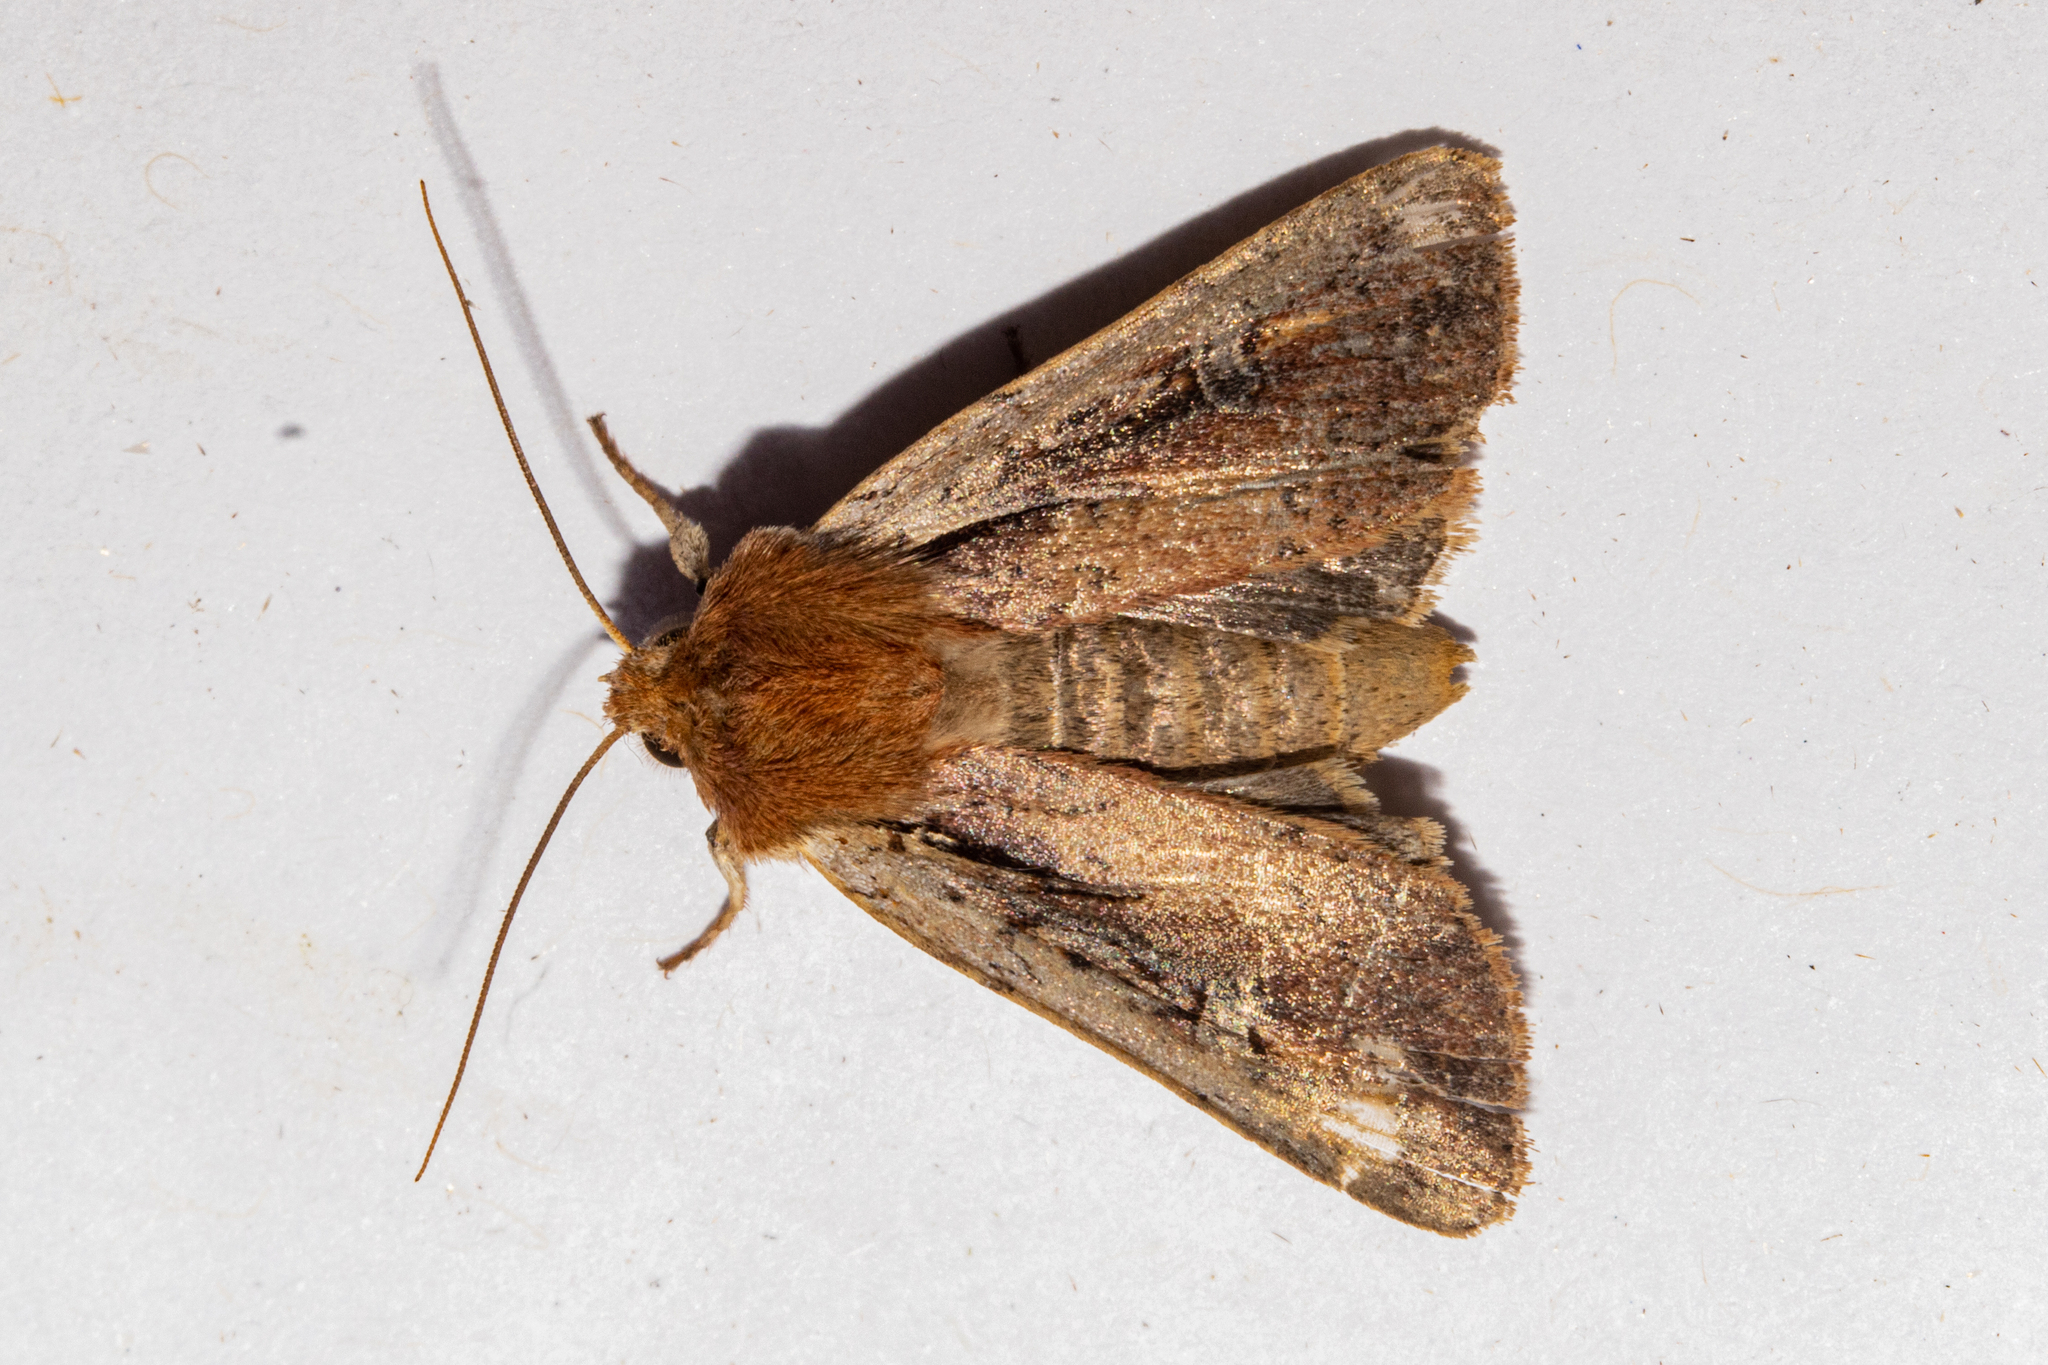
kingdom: Animalia
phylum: Arthropoda
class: Insecta
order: Lepidoptera
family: Noctuidae
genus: Ichneutica
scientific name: Ichneutica atristriga
